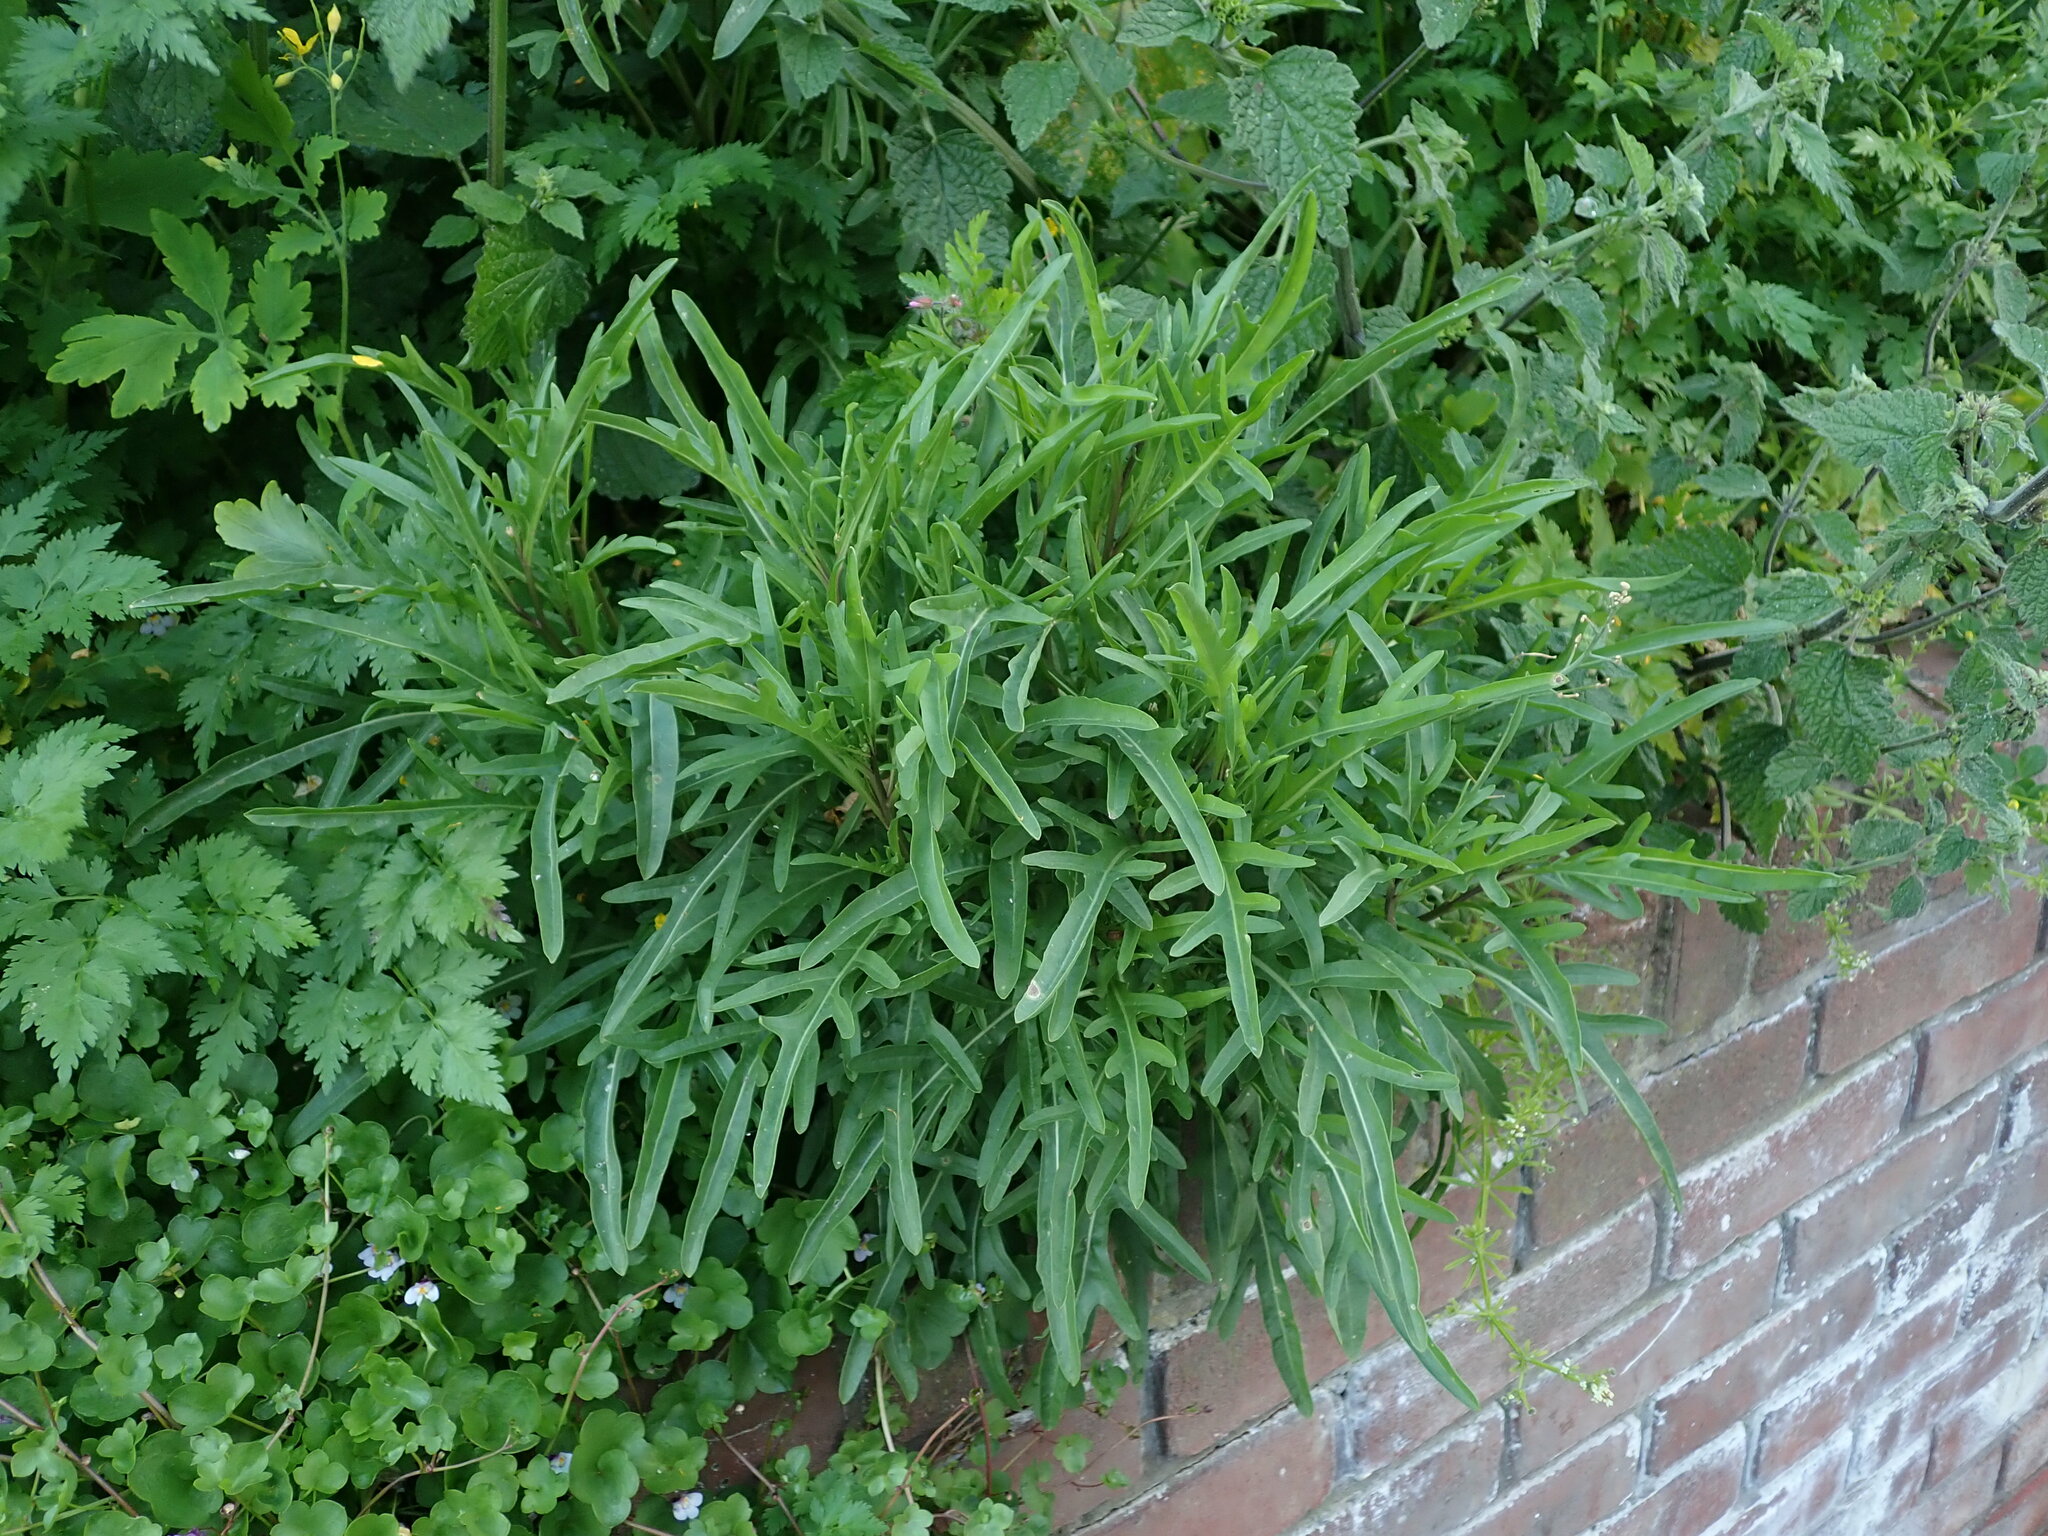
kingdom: Plantae
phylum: Tracheophyta
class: Magnoliopsida
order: Brassicales
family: Brassicaceae
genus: Diplotaxis
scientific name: Diplotaxis tenuifolia
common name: Perennial wall-rocket
